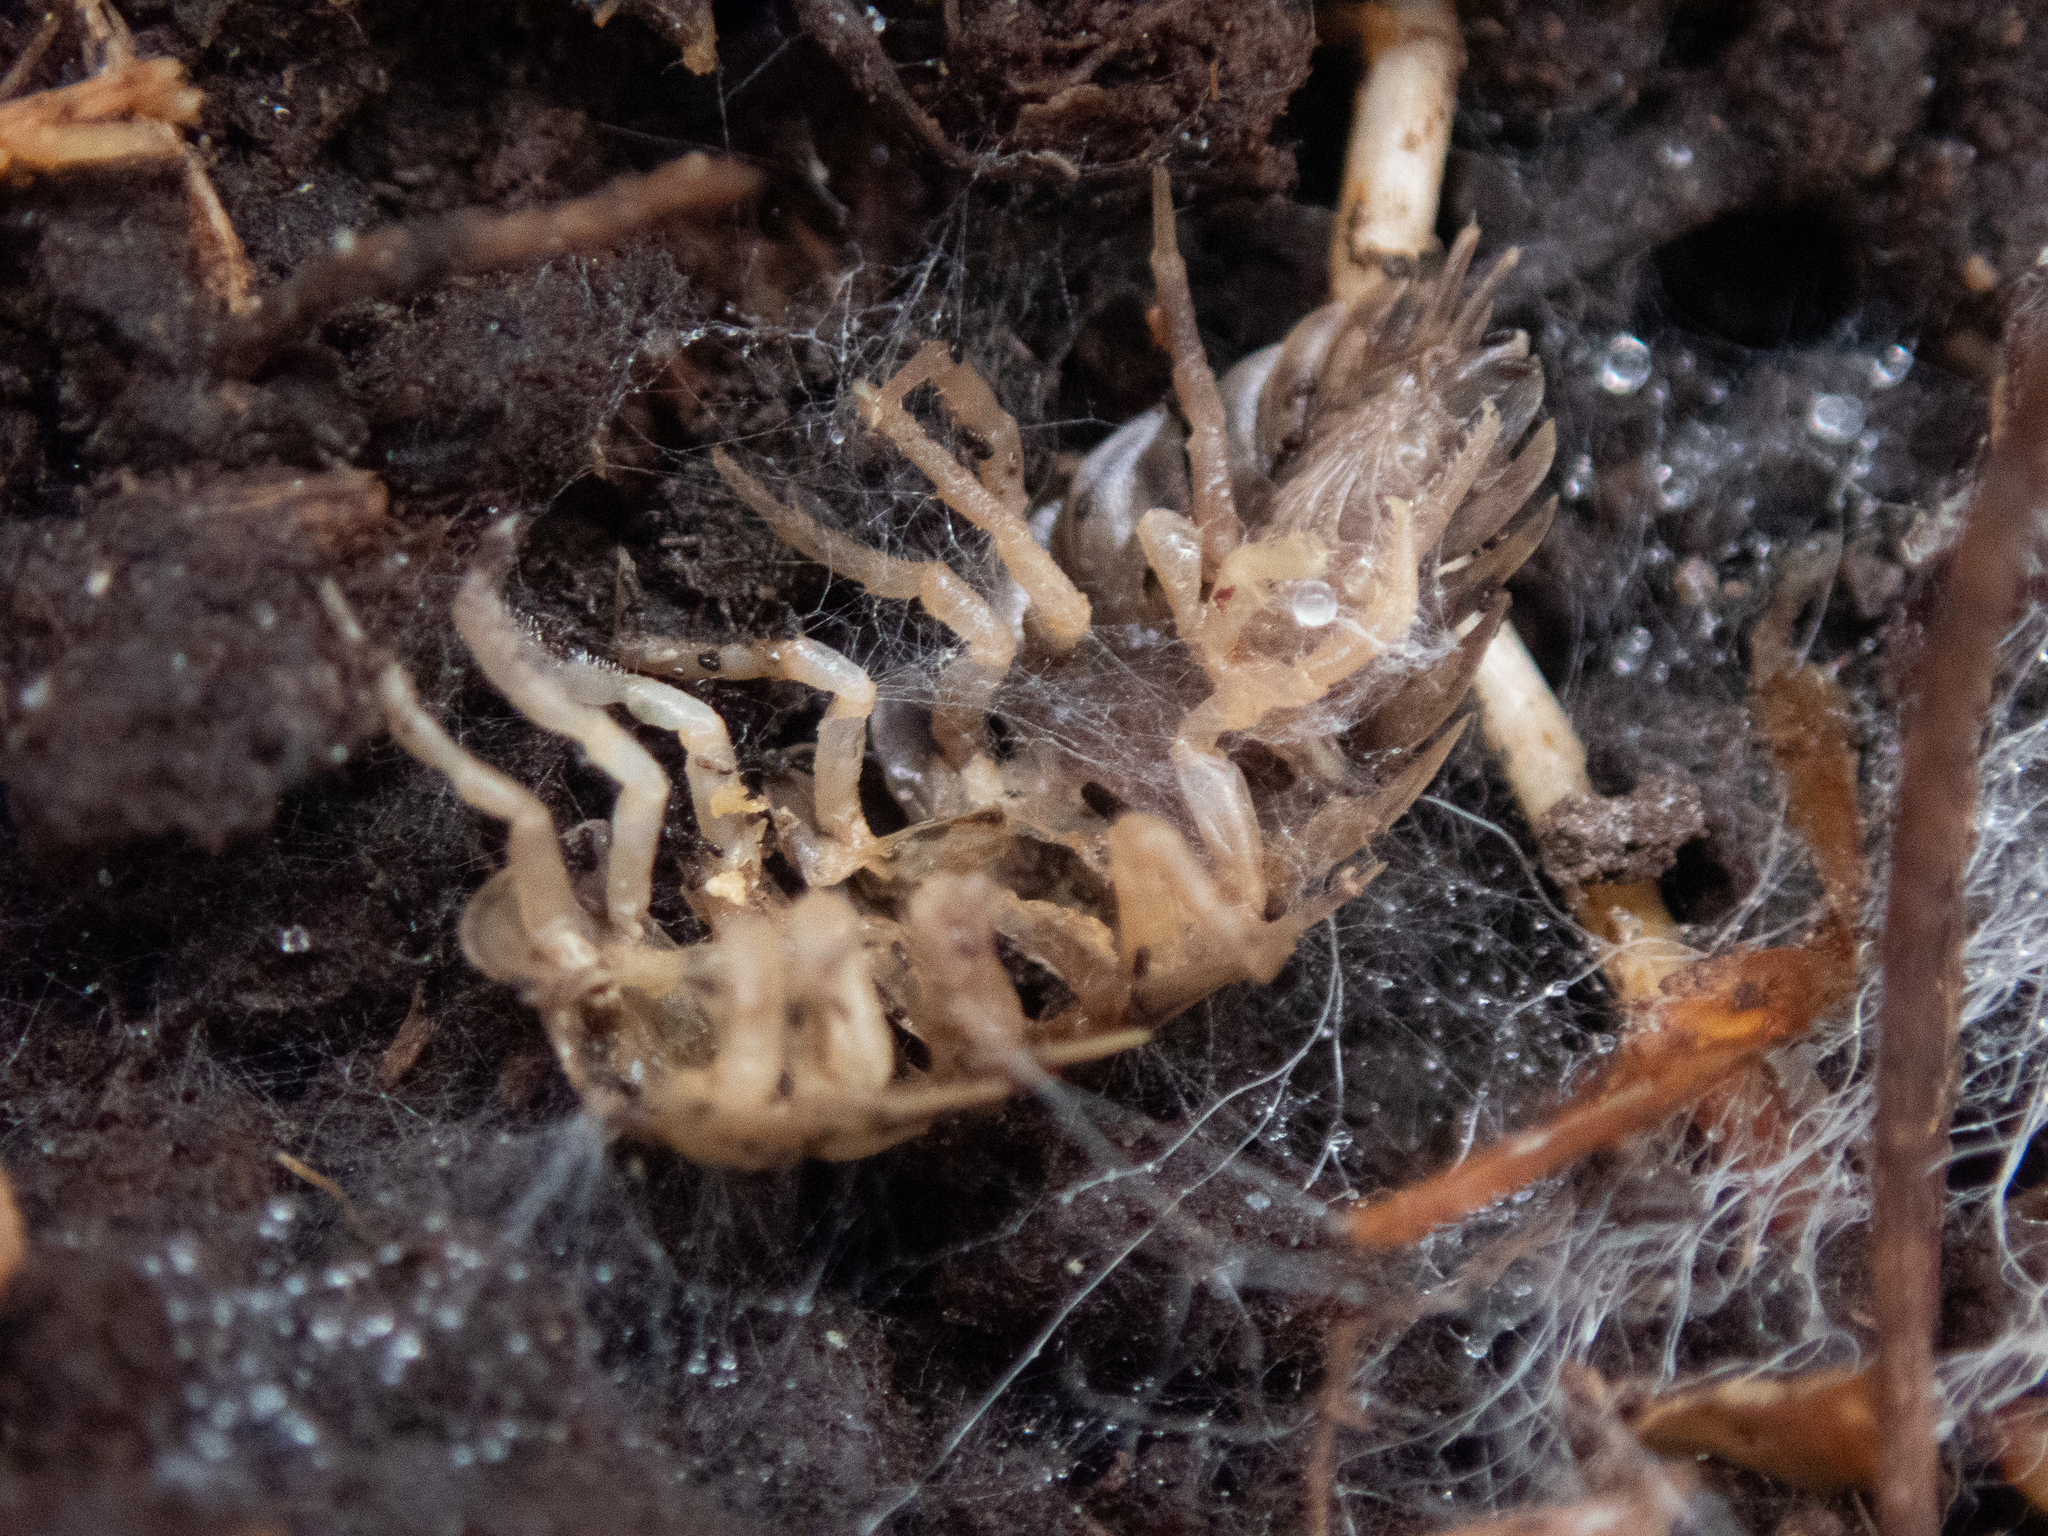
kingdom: Animalia
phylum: Arthropoda
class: Malacostraca
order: Isopoda
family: Oniscidae
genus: Oniscus
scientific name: Oniscus asellus
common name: Common shiny woodlouse
